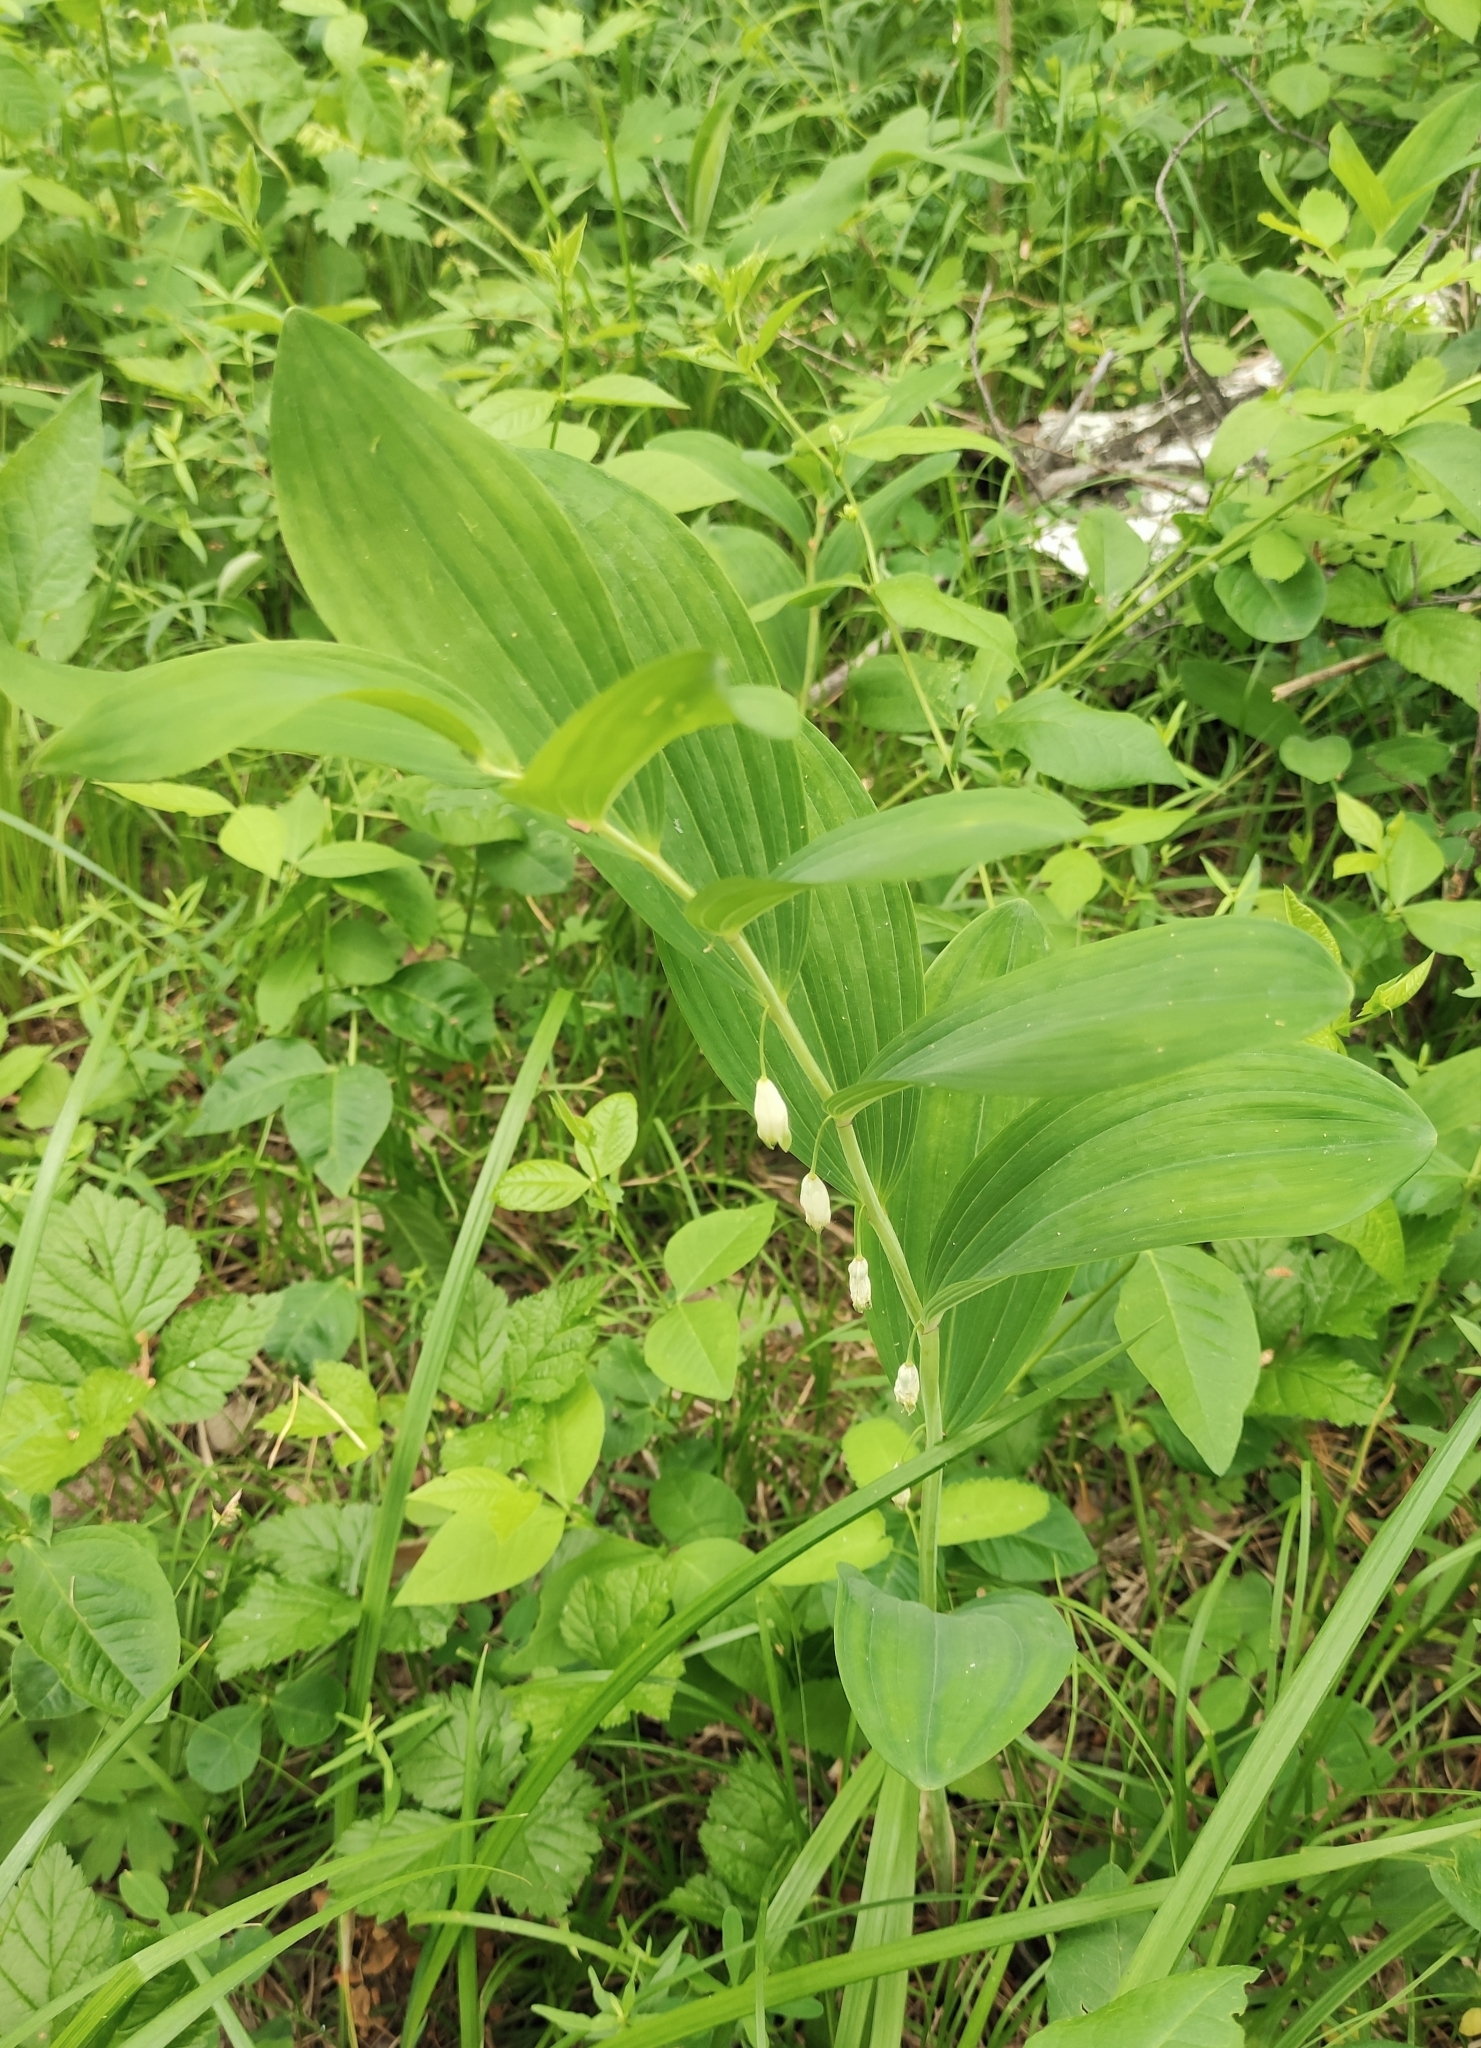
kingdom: Plantae
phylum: Tracheophyta
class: Liliopsida
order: Asparagales
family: Asparagaceae
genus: Polygonatum
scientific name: Polygonatum odoratum
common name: Angular solomon's-seal
